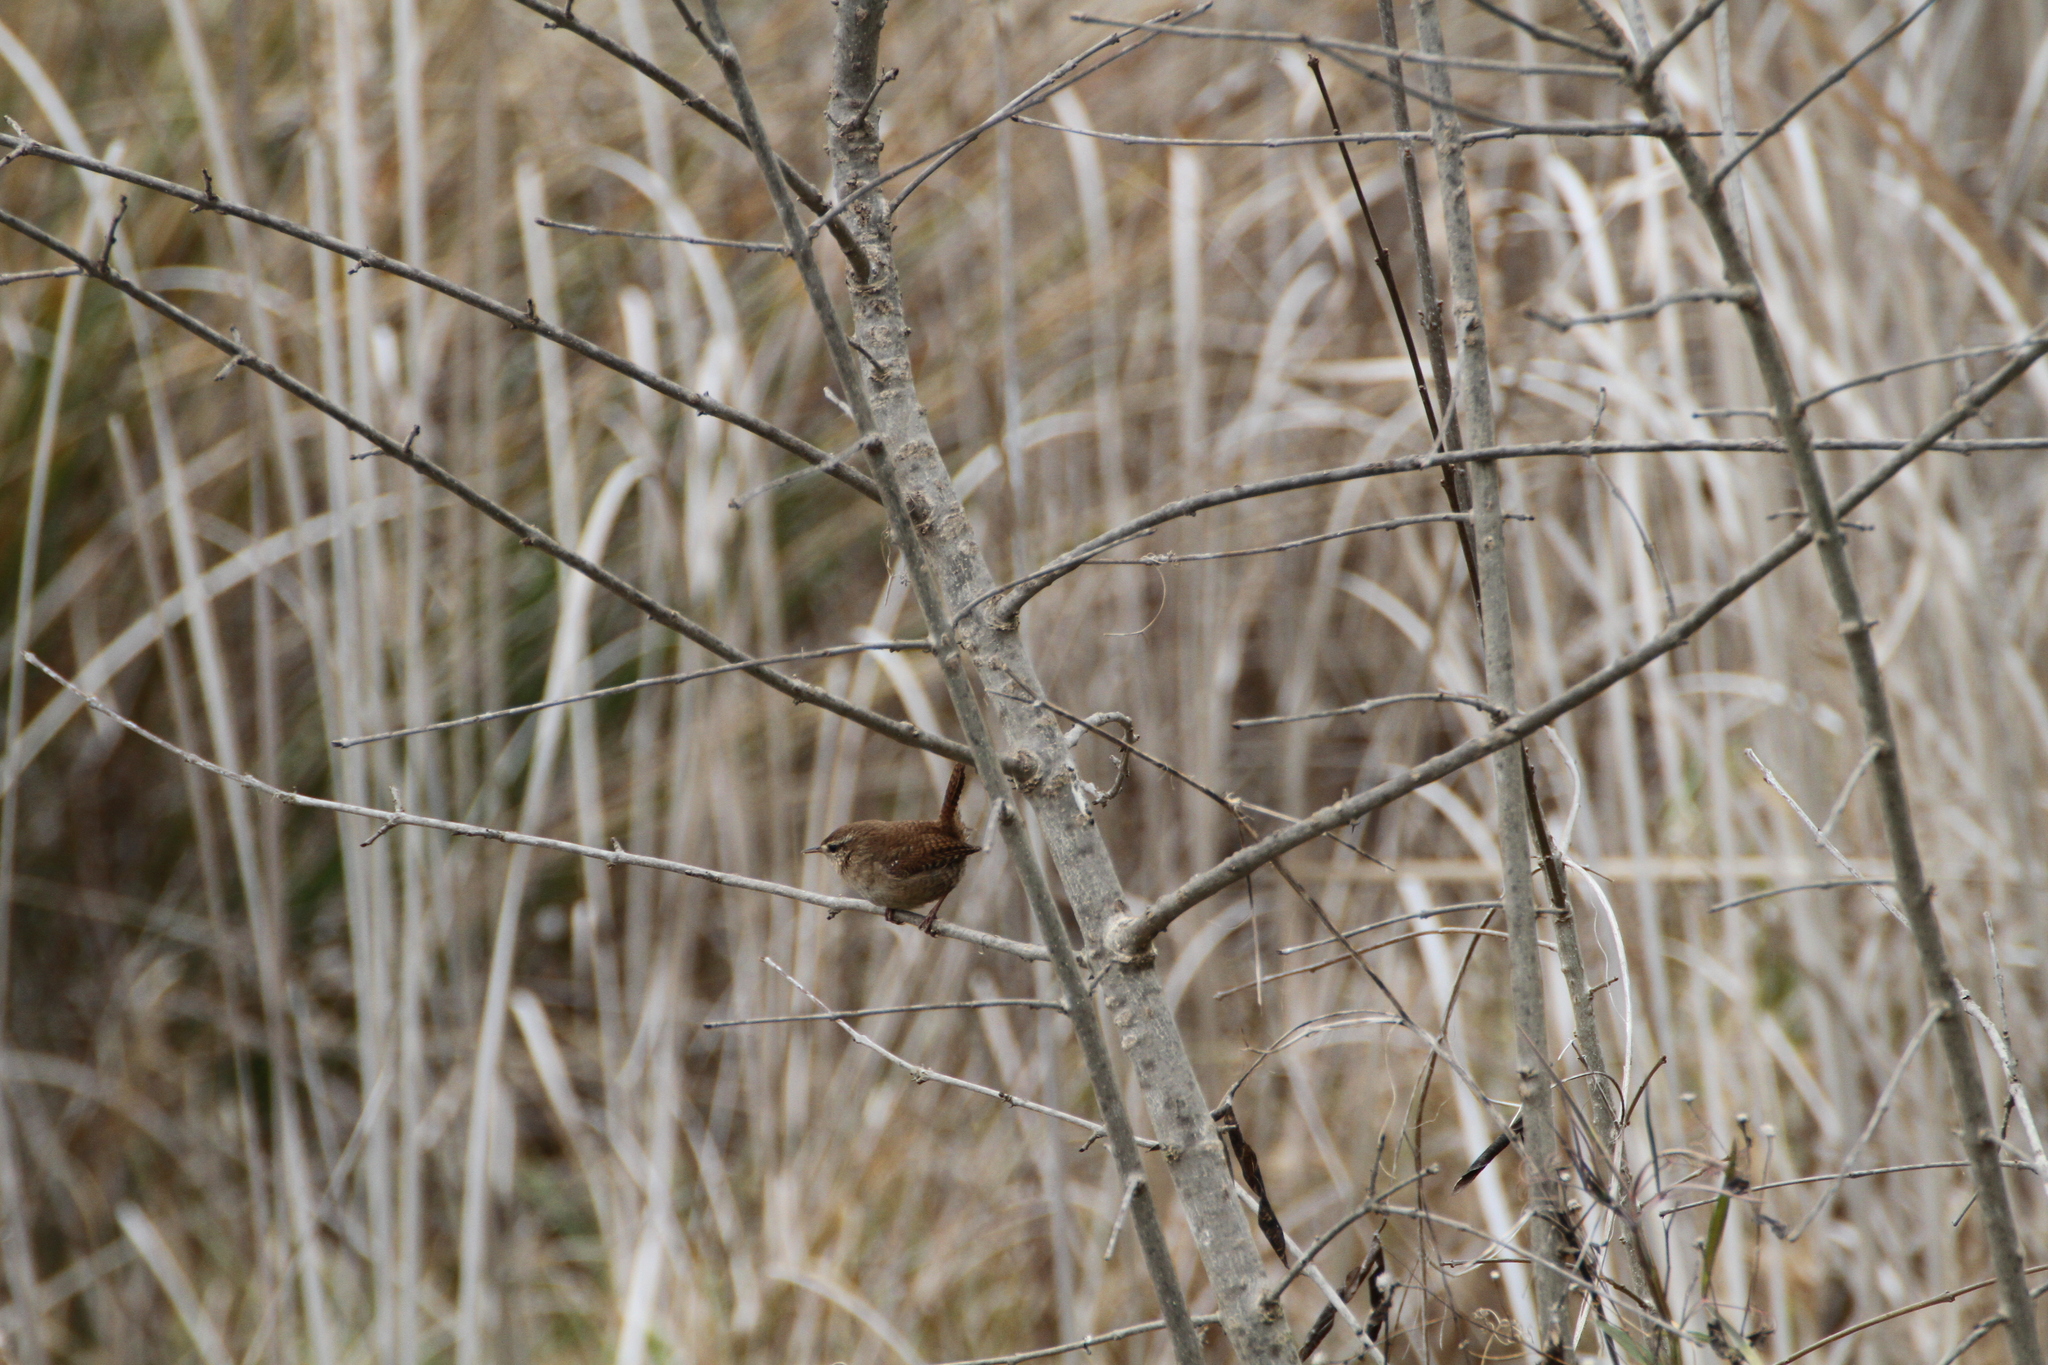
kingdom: Animalia
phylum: Chordata
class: Aves
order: Passeriformes
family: Troglodytidae
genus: Troglodytes
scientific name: Troglodytes troglodytes
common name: Eurasian wren
